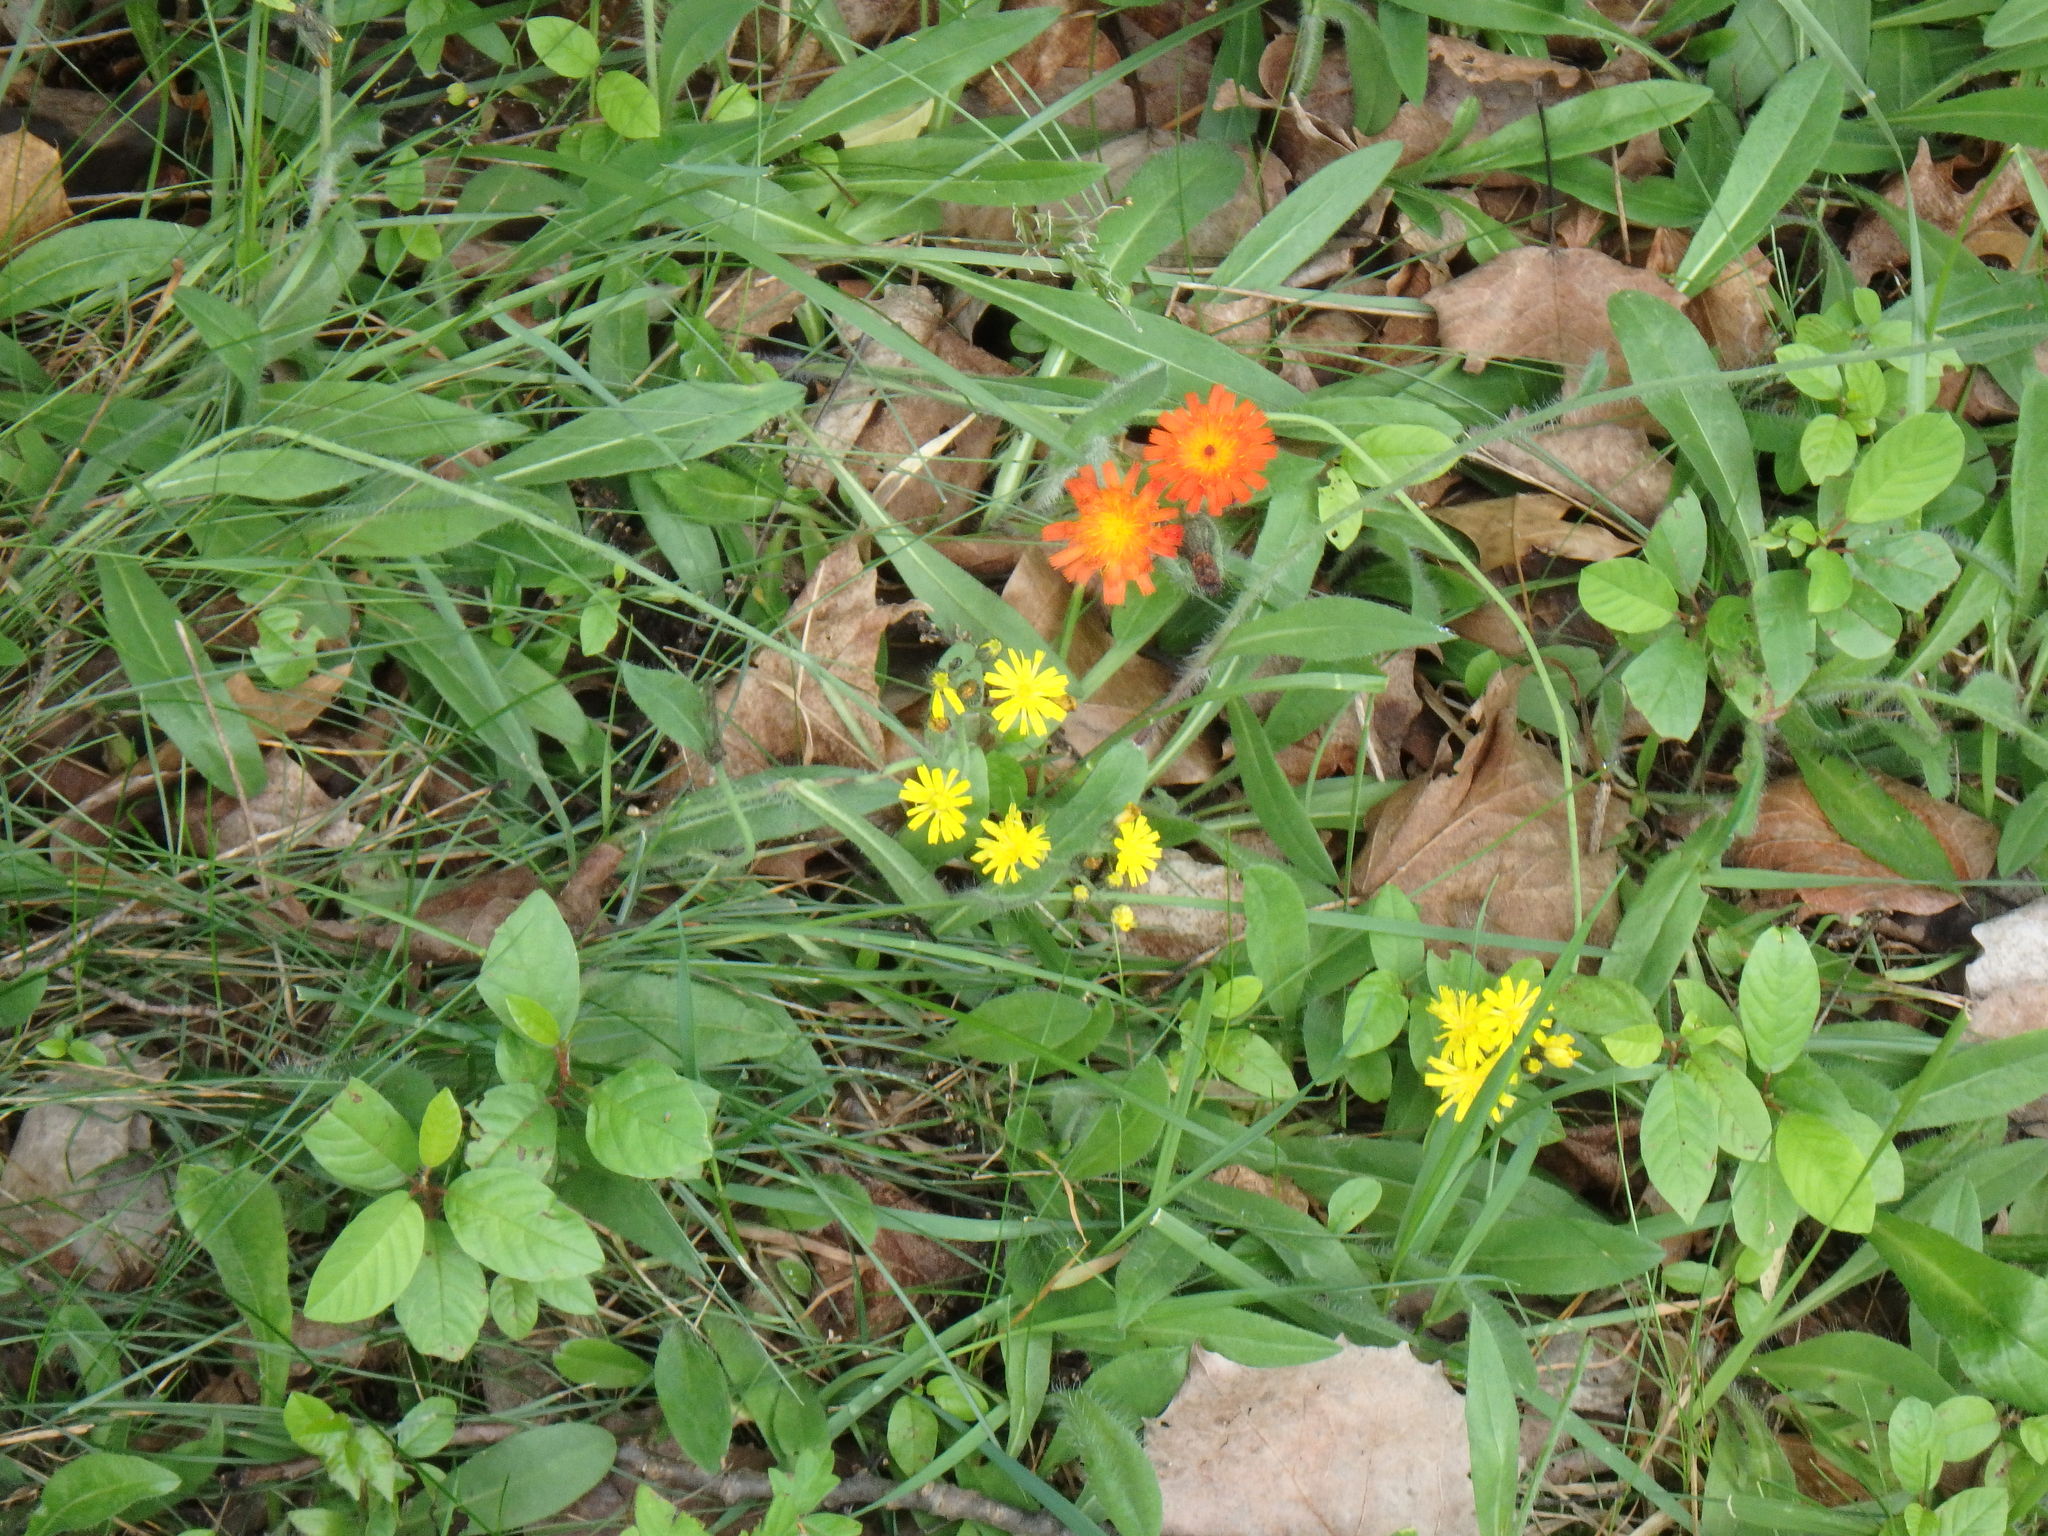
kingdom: Plantae
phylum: Tracheophyta
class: Magnoliopsida
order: Asterales
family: Asteraceae
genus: Pilosella
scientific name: Pilosella aurantiaca
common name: Fox-and-cubs
